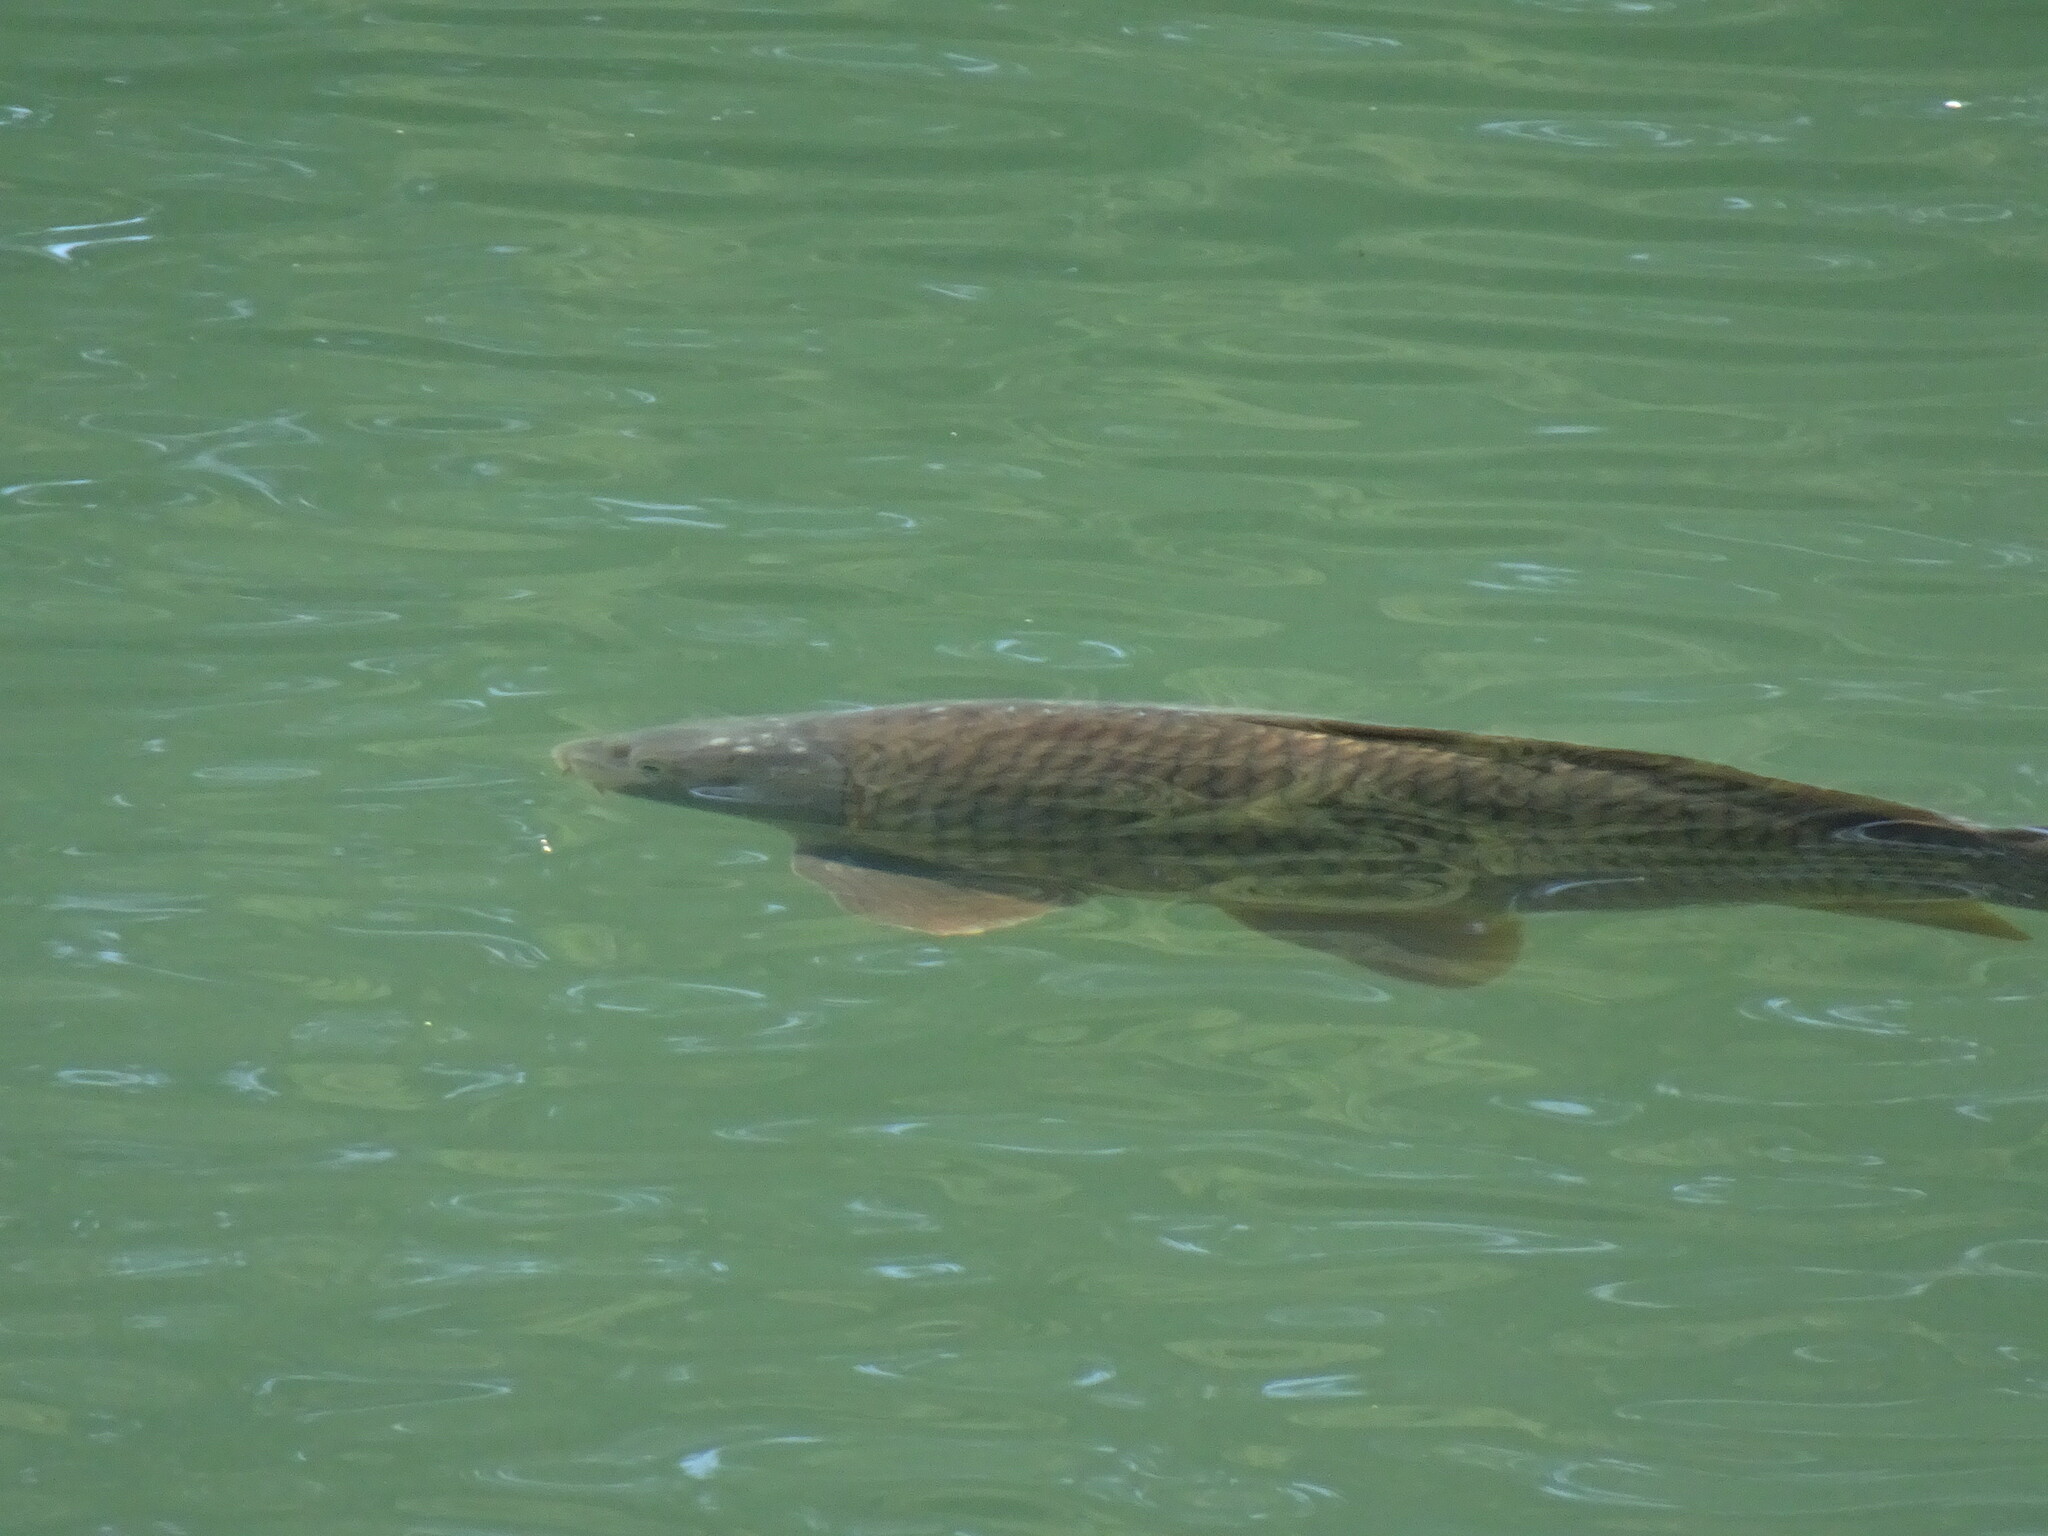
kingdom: Animalia
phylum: Chordata
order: Cypriniformes
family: Cyprinidae
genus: Cyprinus
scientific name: Cyprinus carpio
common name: Common carp
